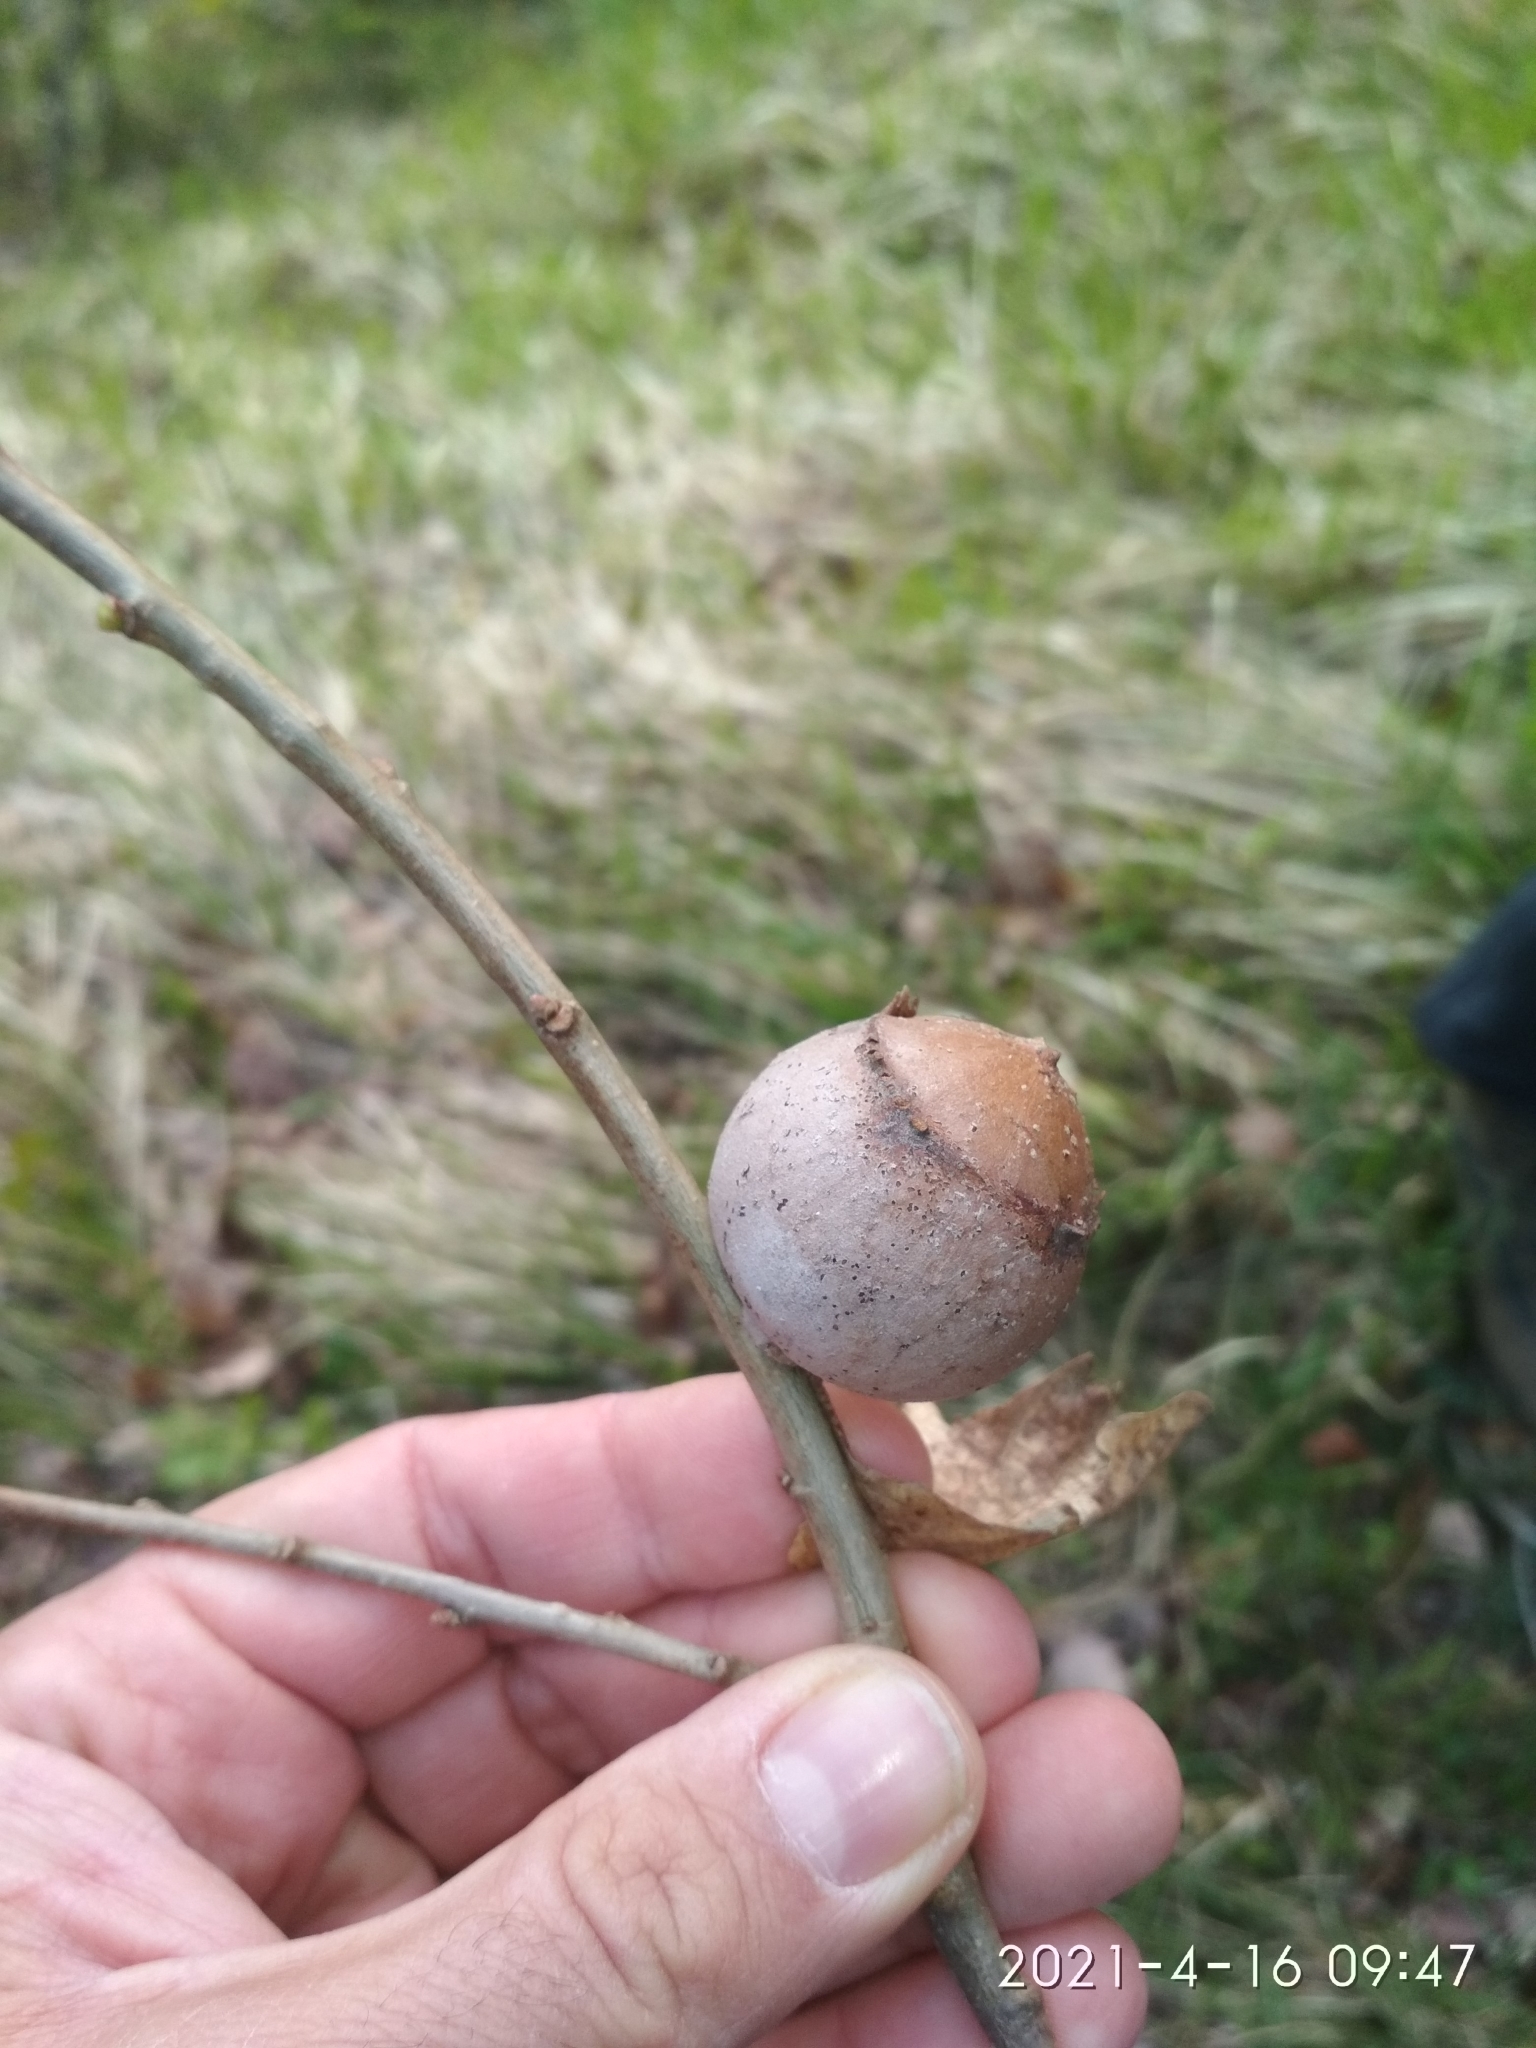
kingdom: Animalia
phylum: Arthropoda
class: Insecta
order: Hymenoptera
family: Cynipidae
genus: Andricus
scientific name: Andricus quercustozae
